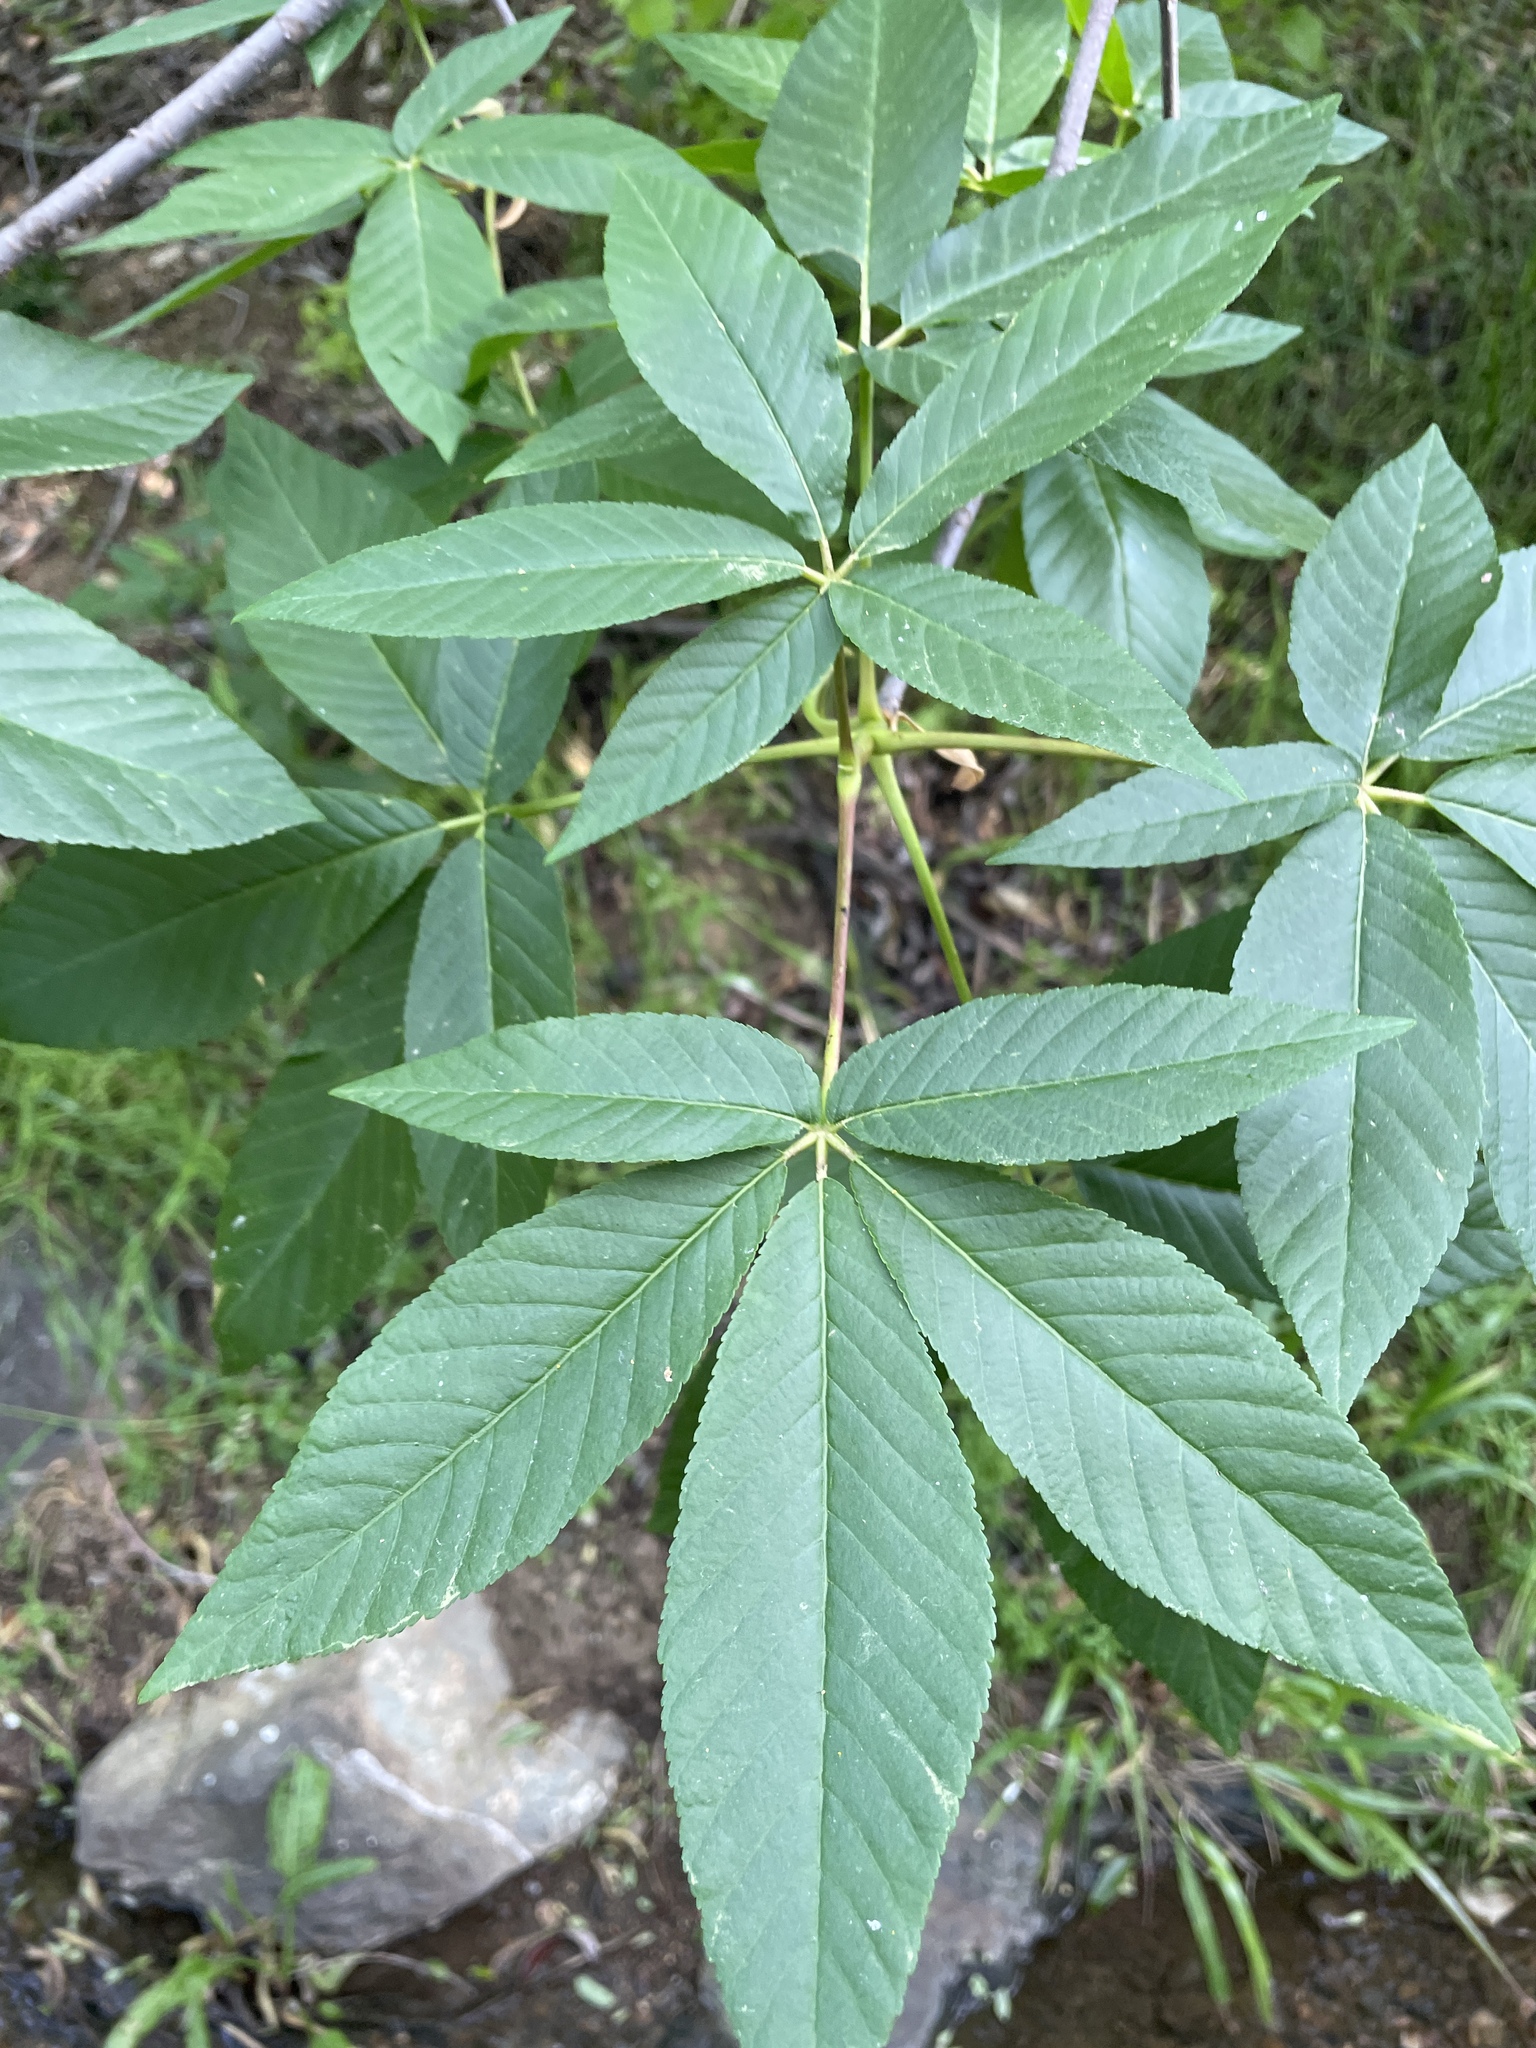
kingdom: Plantae
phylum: Tracheophyta
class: Magnoliopsida
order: Sapindales
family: Sapindaceae
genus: Aesculus
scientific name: Aesculus californica
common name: California buckeye
